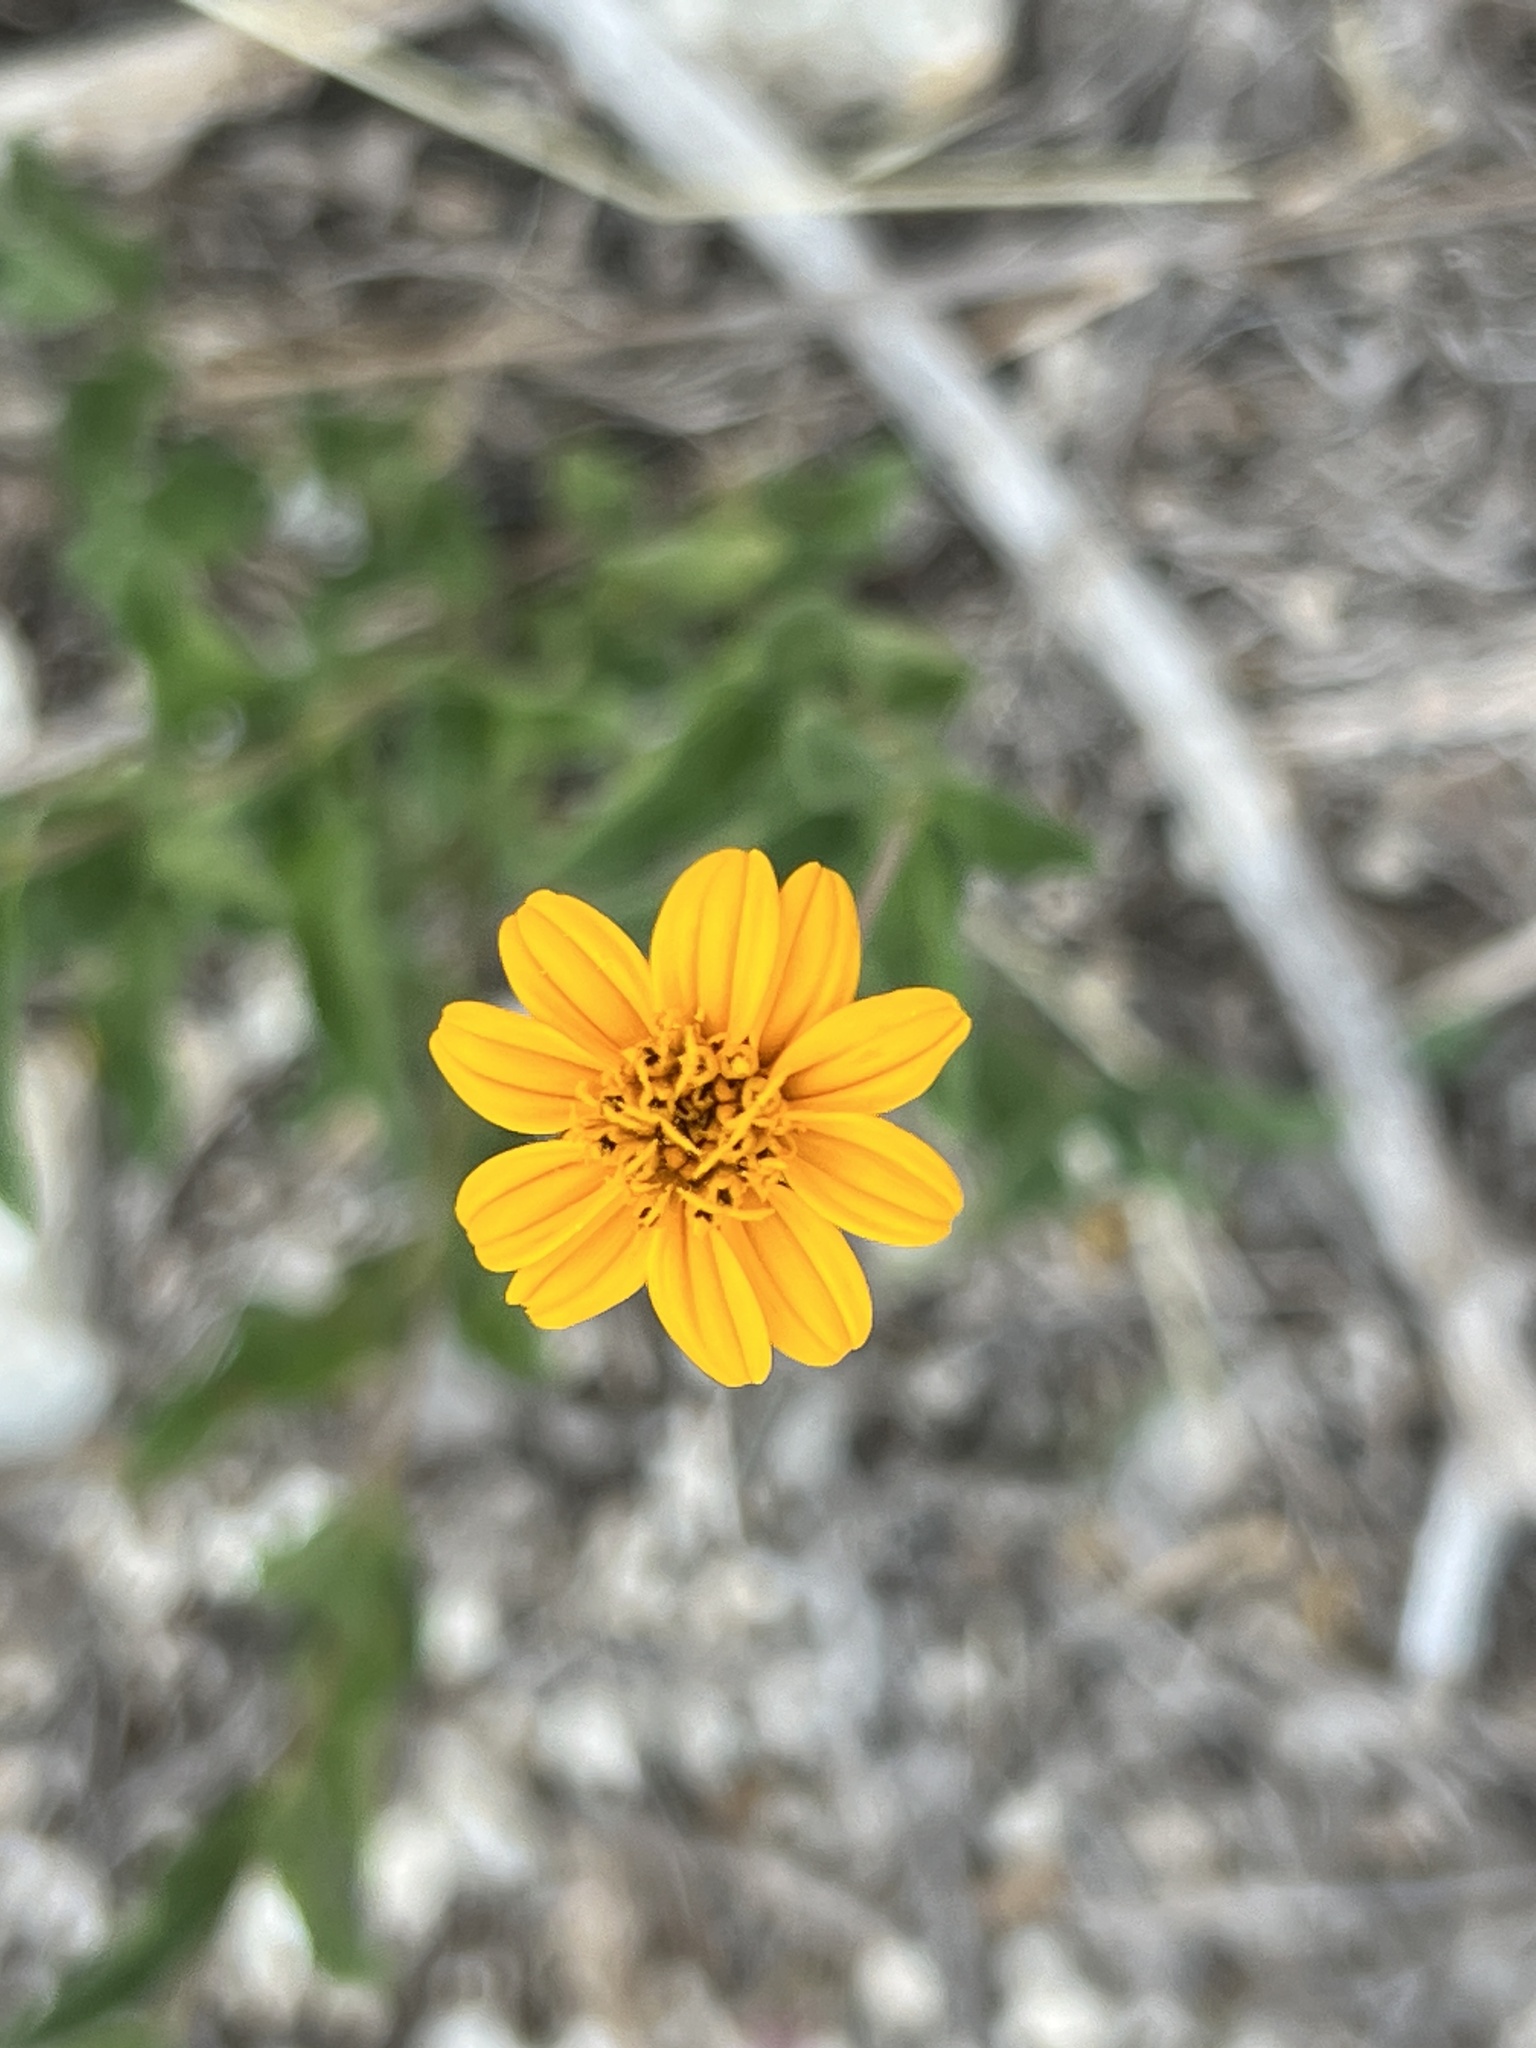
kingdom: Plantae
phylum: Tracheophyta
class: Magnoliopsida
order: Asterales
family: Asteraceae
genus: Wedelia
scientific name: Wedelia acapulcensis
